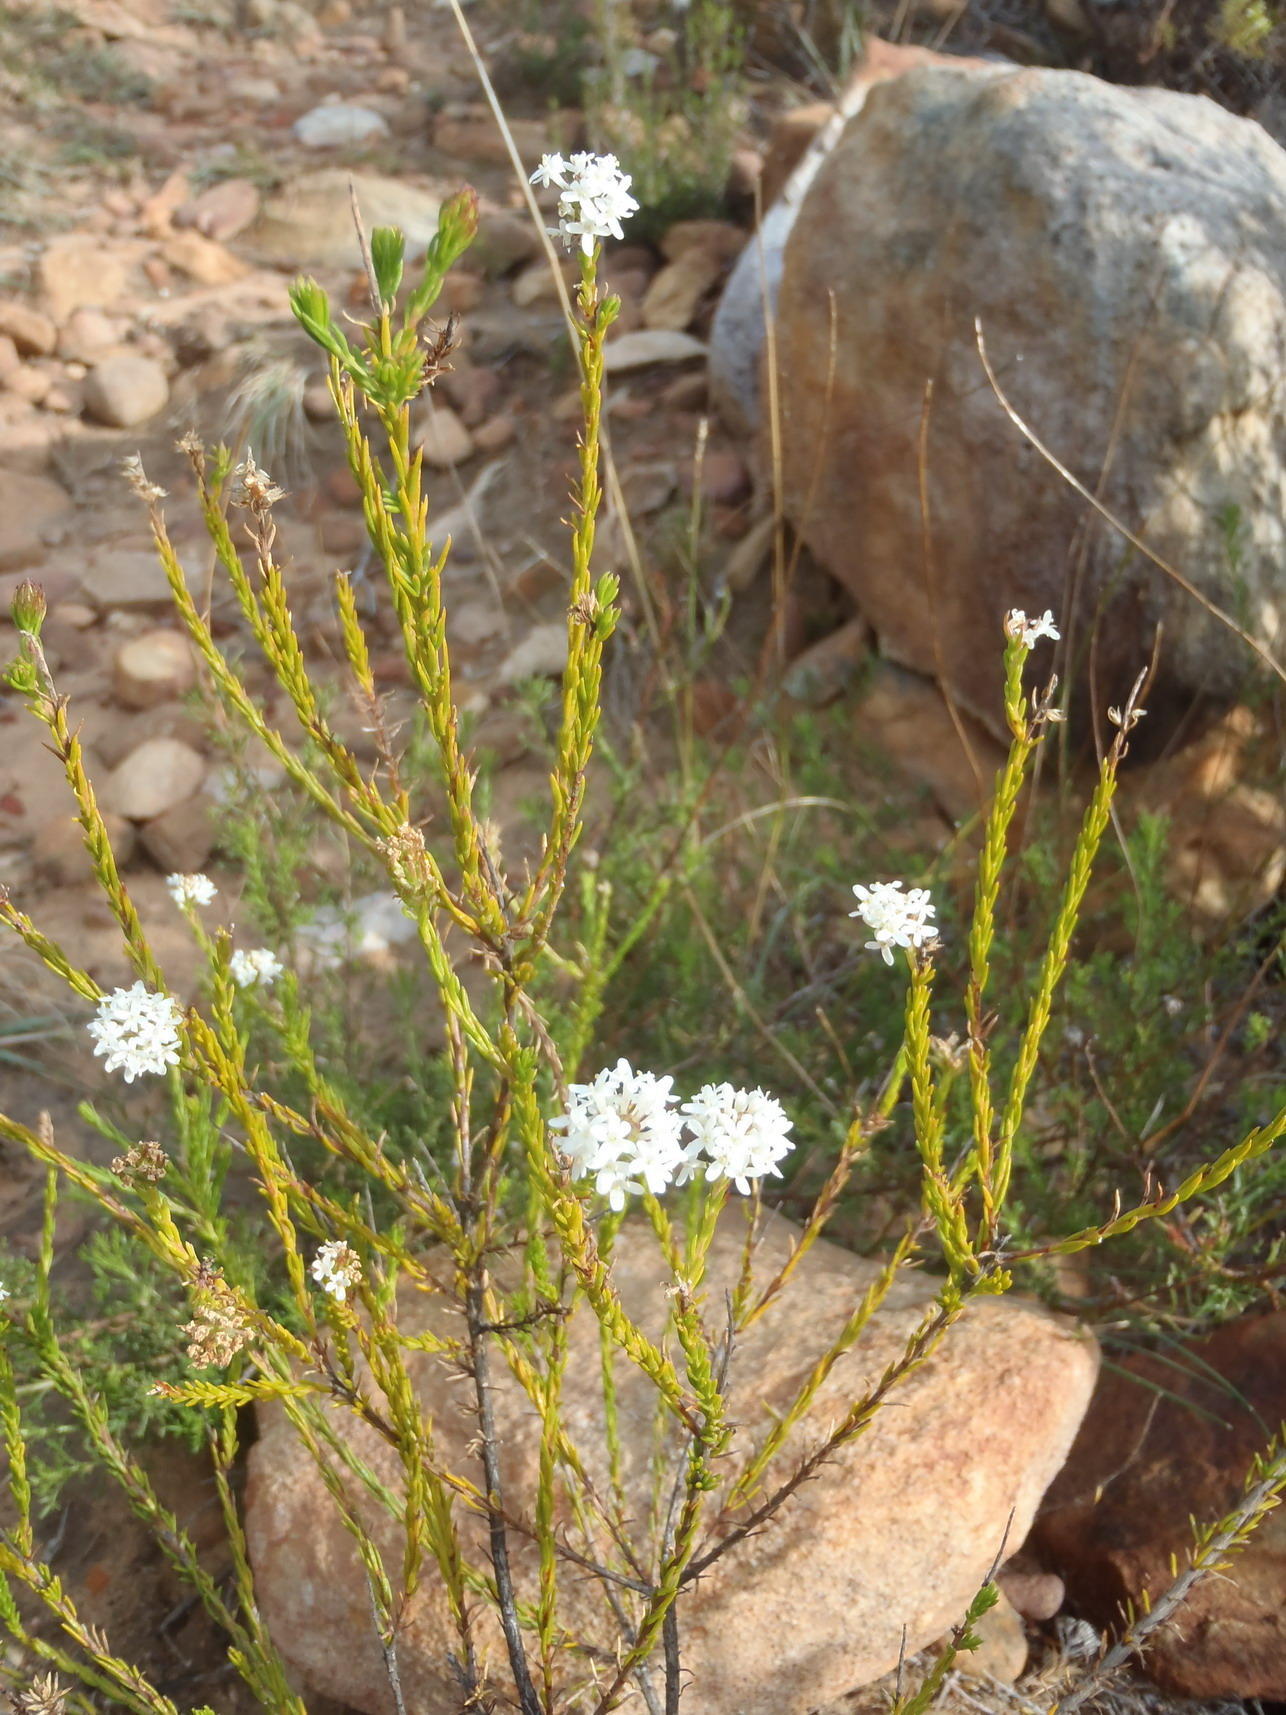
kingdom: Plantae
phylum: Tracheophyta
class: Magnoliopsida
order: Lamiales
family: Scrophulariaceae
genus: Selago
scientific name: Selago aspera
